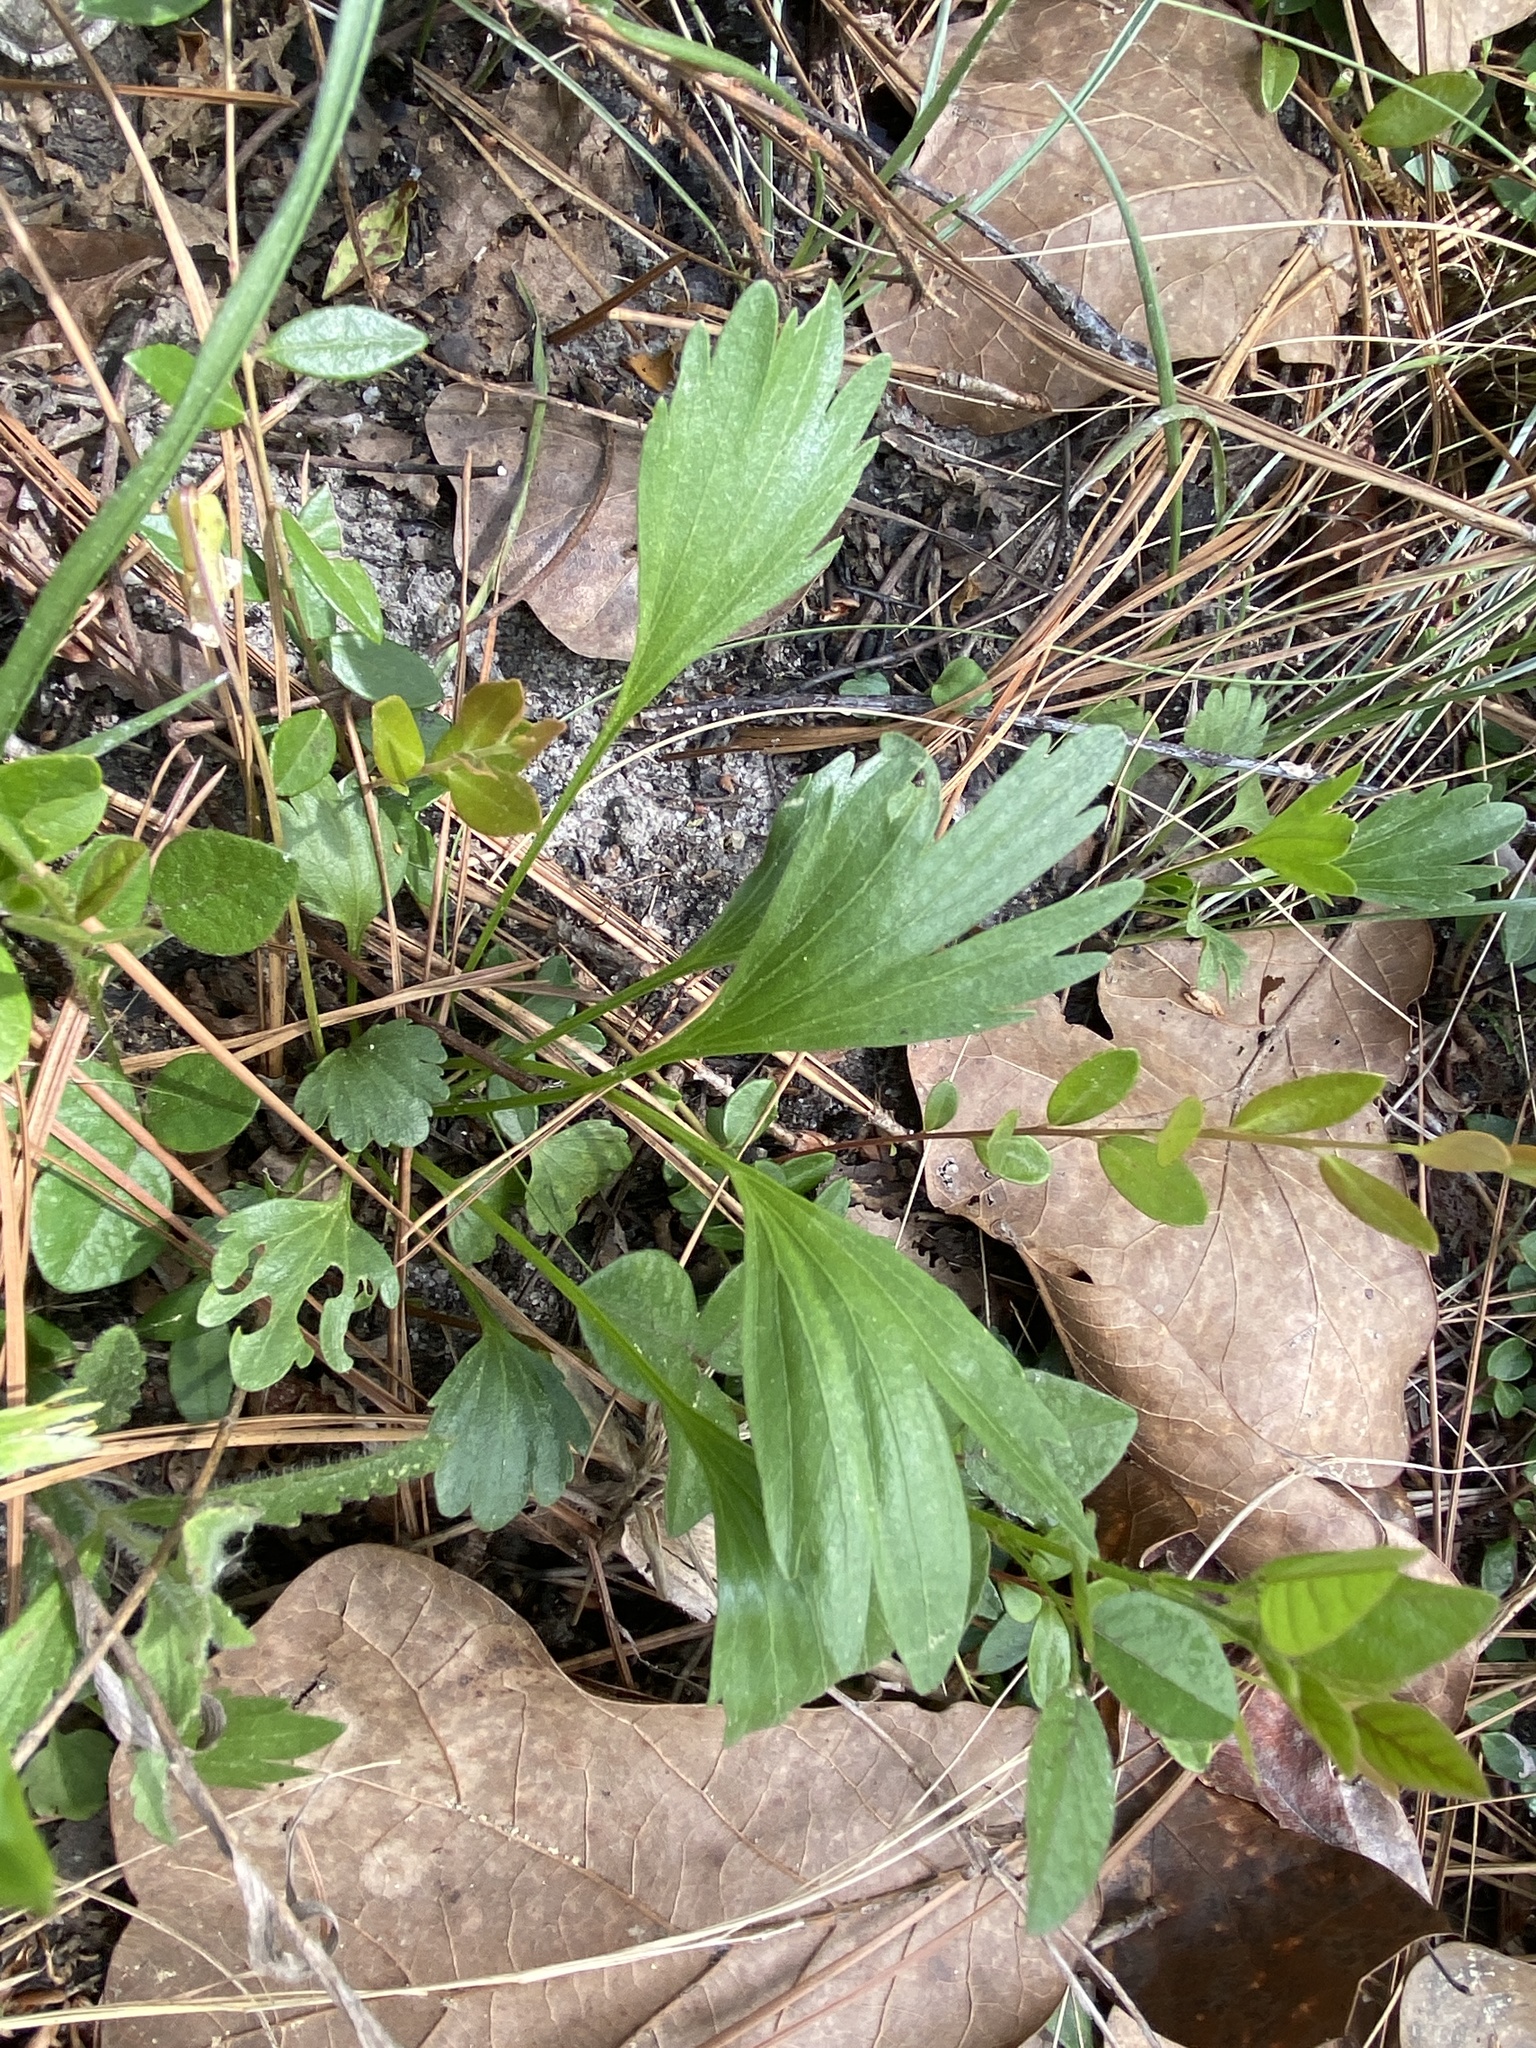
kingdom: Plantae
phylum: Tracheophyta
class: Magnoliopsida
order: Malpighiales
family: Violaceae
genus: Viola
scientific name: Viola pedata
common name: Pansy violet
